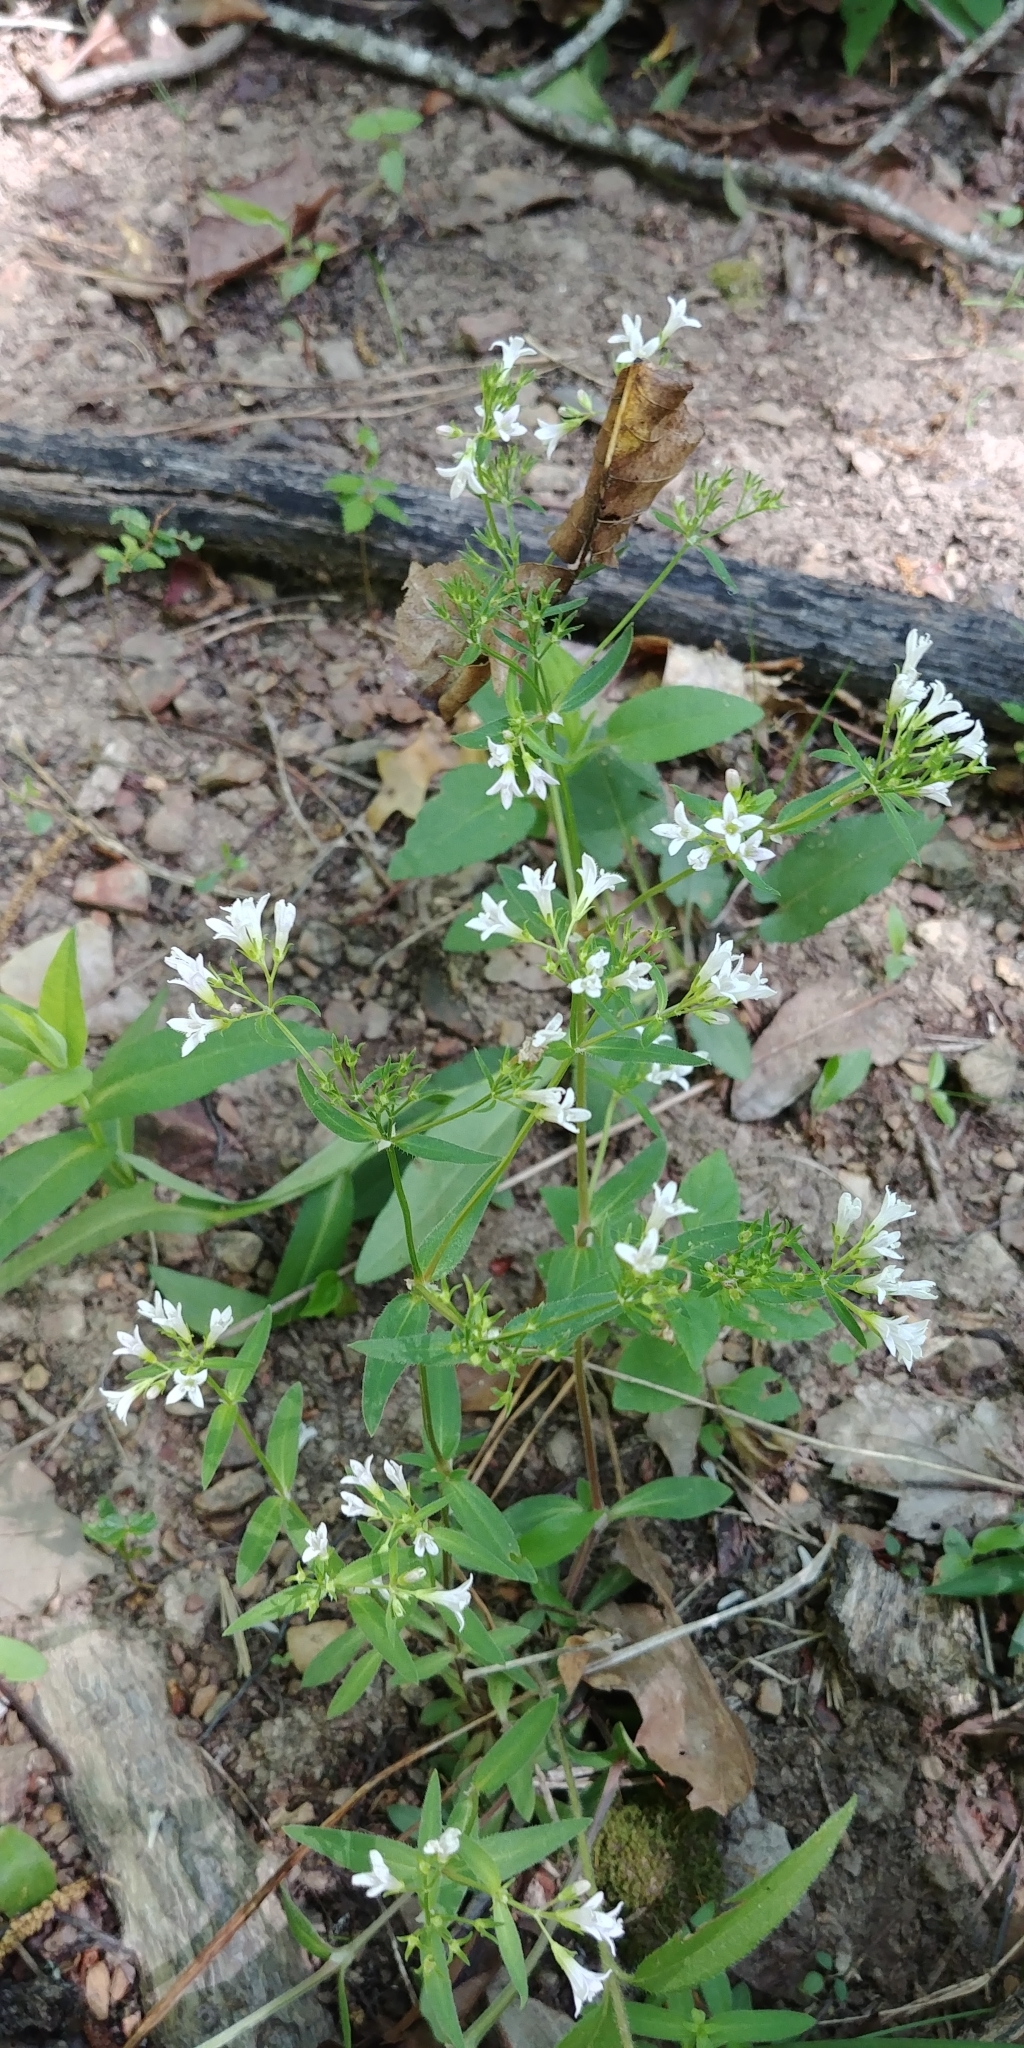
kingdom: Plantae
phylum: Tracheophyta
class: Magnoliopsida
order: Gentianales
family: Rubiaceae
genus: Houstonia
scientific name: Houstonia purpurea
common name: Summer bluet
